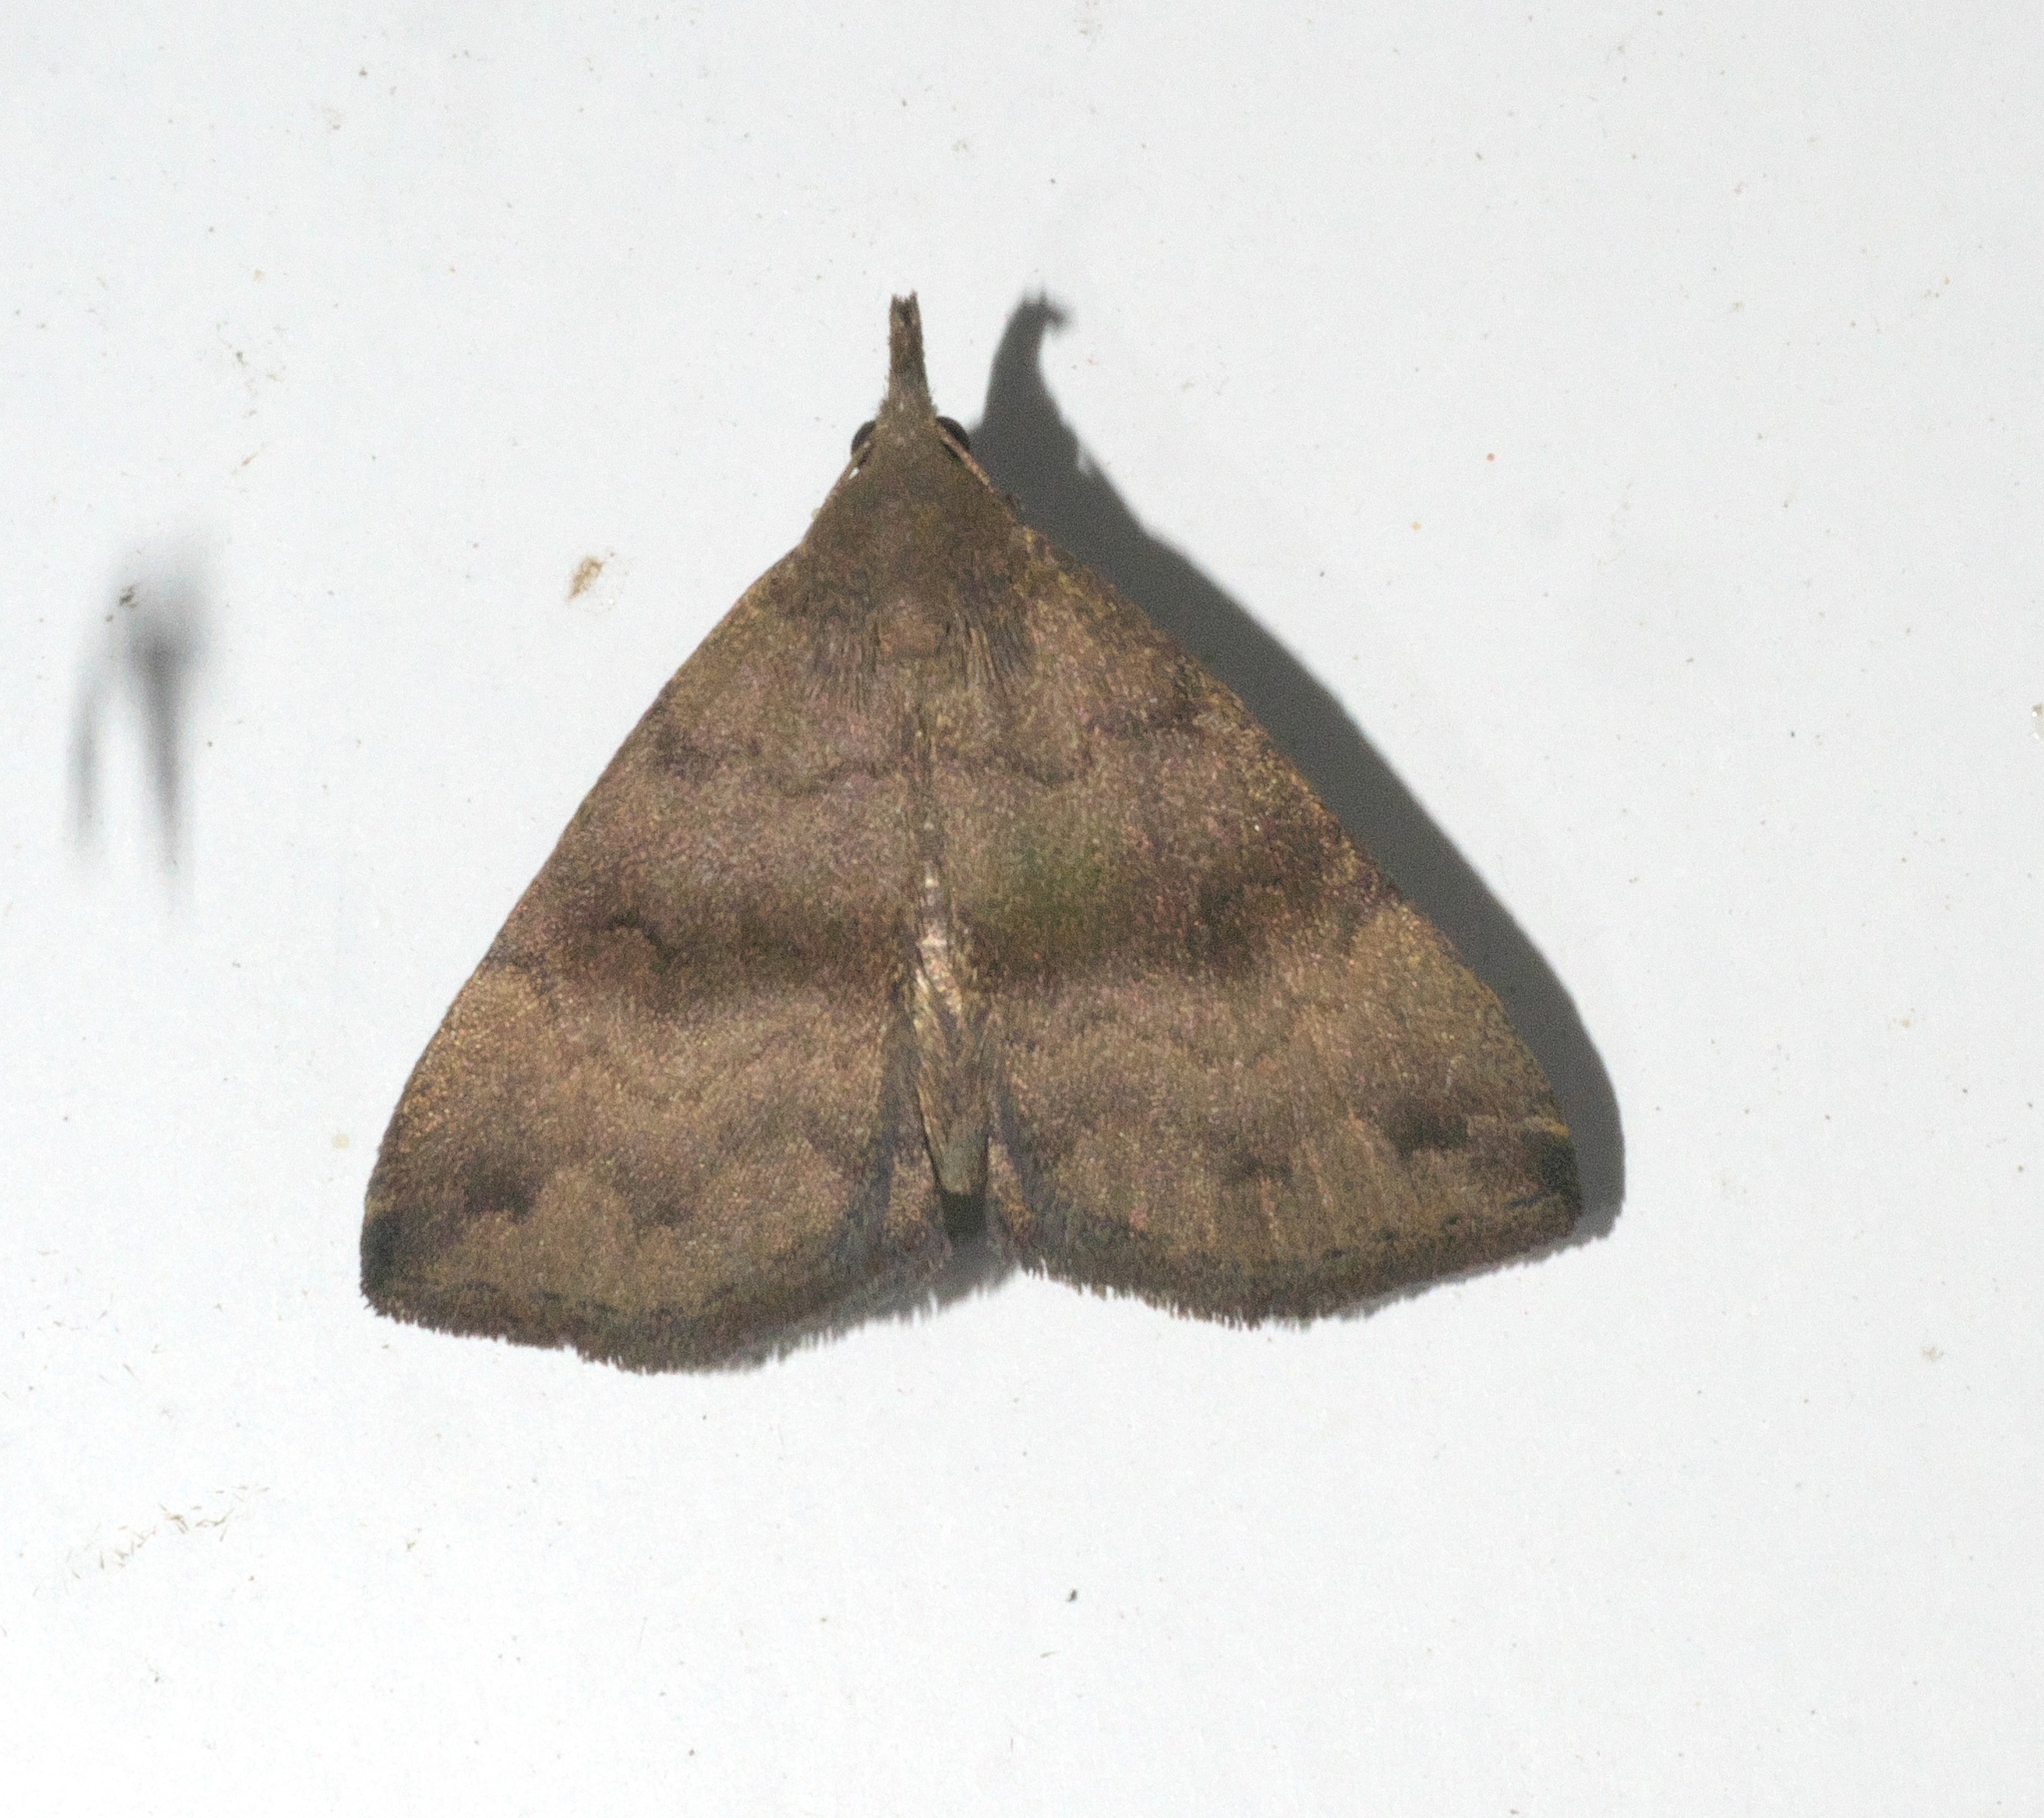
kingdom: Animalia
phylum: Arthropoda
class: Insecta
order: Lepidoptera
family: Erebidae
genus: Phalaenostola
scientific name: Phalaenostola eumelusalis
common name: Dark phalaenostola moth
